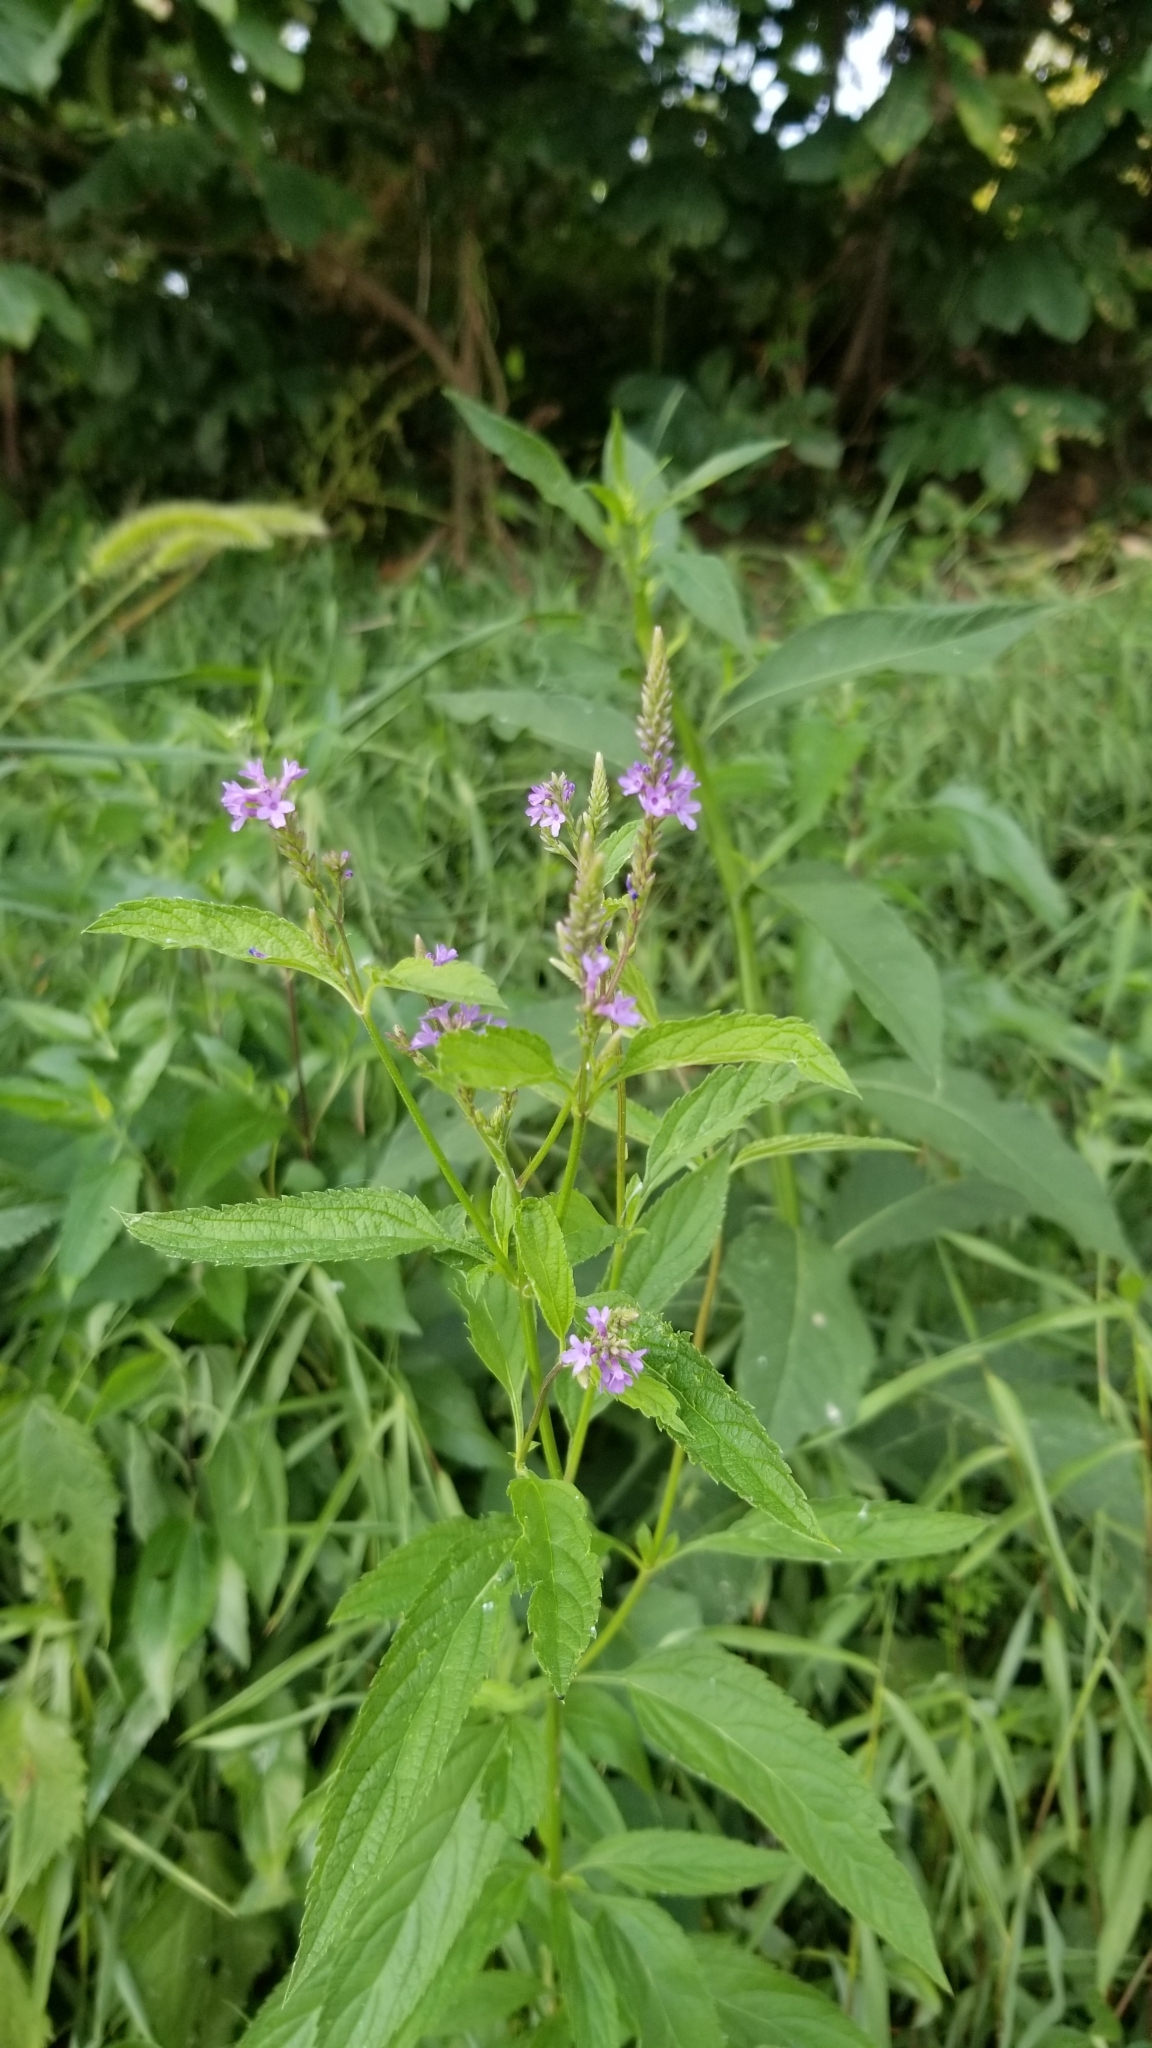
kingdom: Plantae
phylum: Tracheophyta
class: Magnoliopsida
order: Lamiales
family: Verbenaceae
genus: Verbena
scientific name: Verbena hastata
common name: American blue vervain
